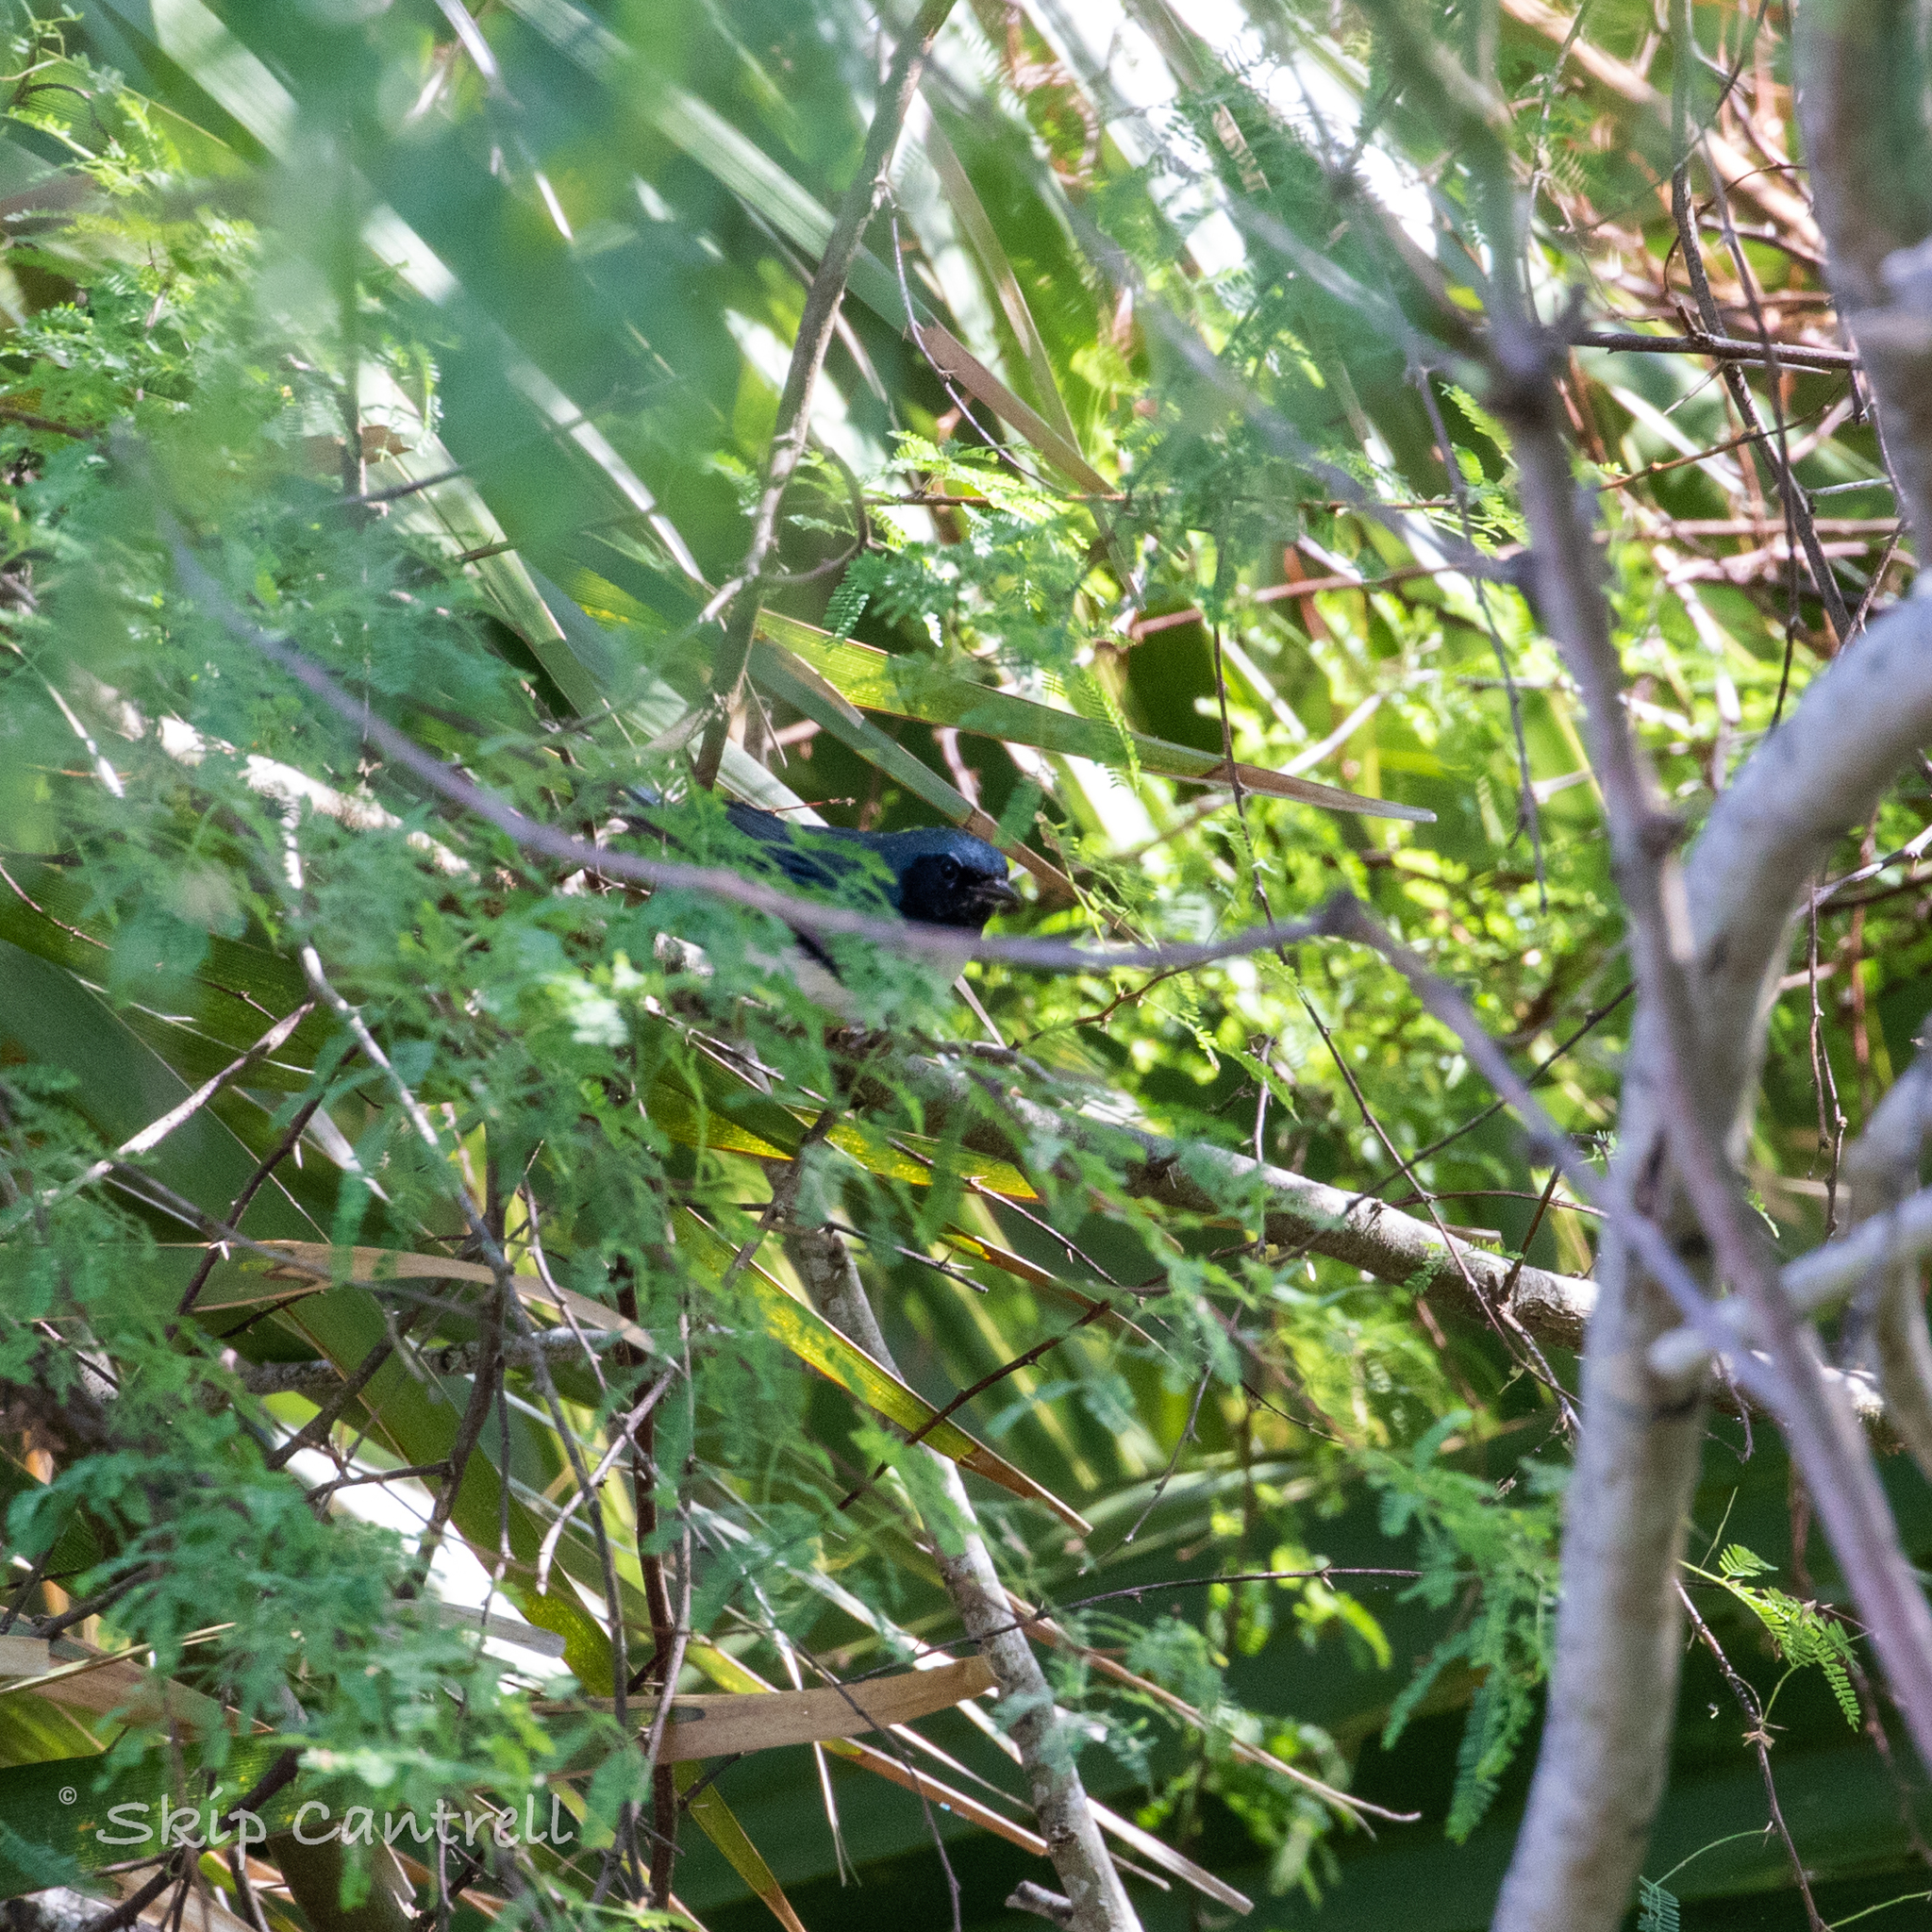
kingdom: Animalia
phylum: Chordata
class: Aves
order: Passeriformes
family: Parulidae
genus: Setophaga
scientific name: Setophaga caerulescens
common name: Black-throated blue warbler
